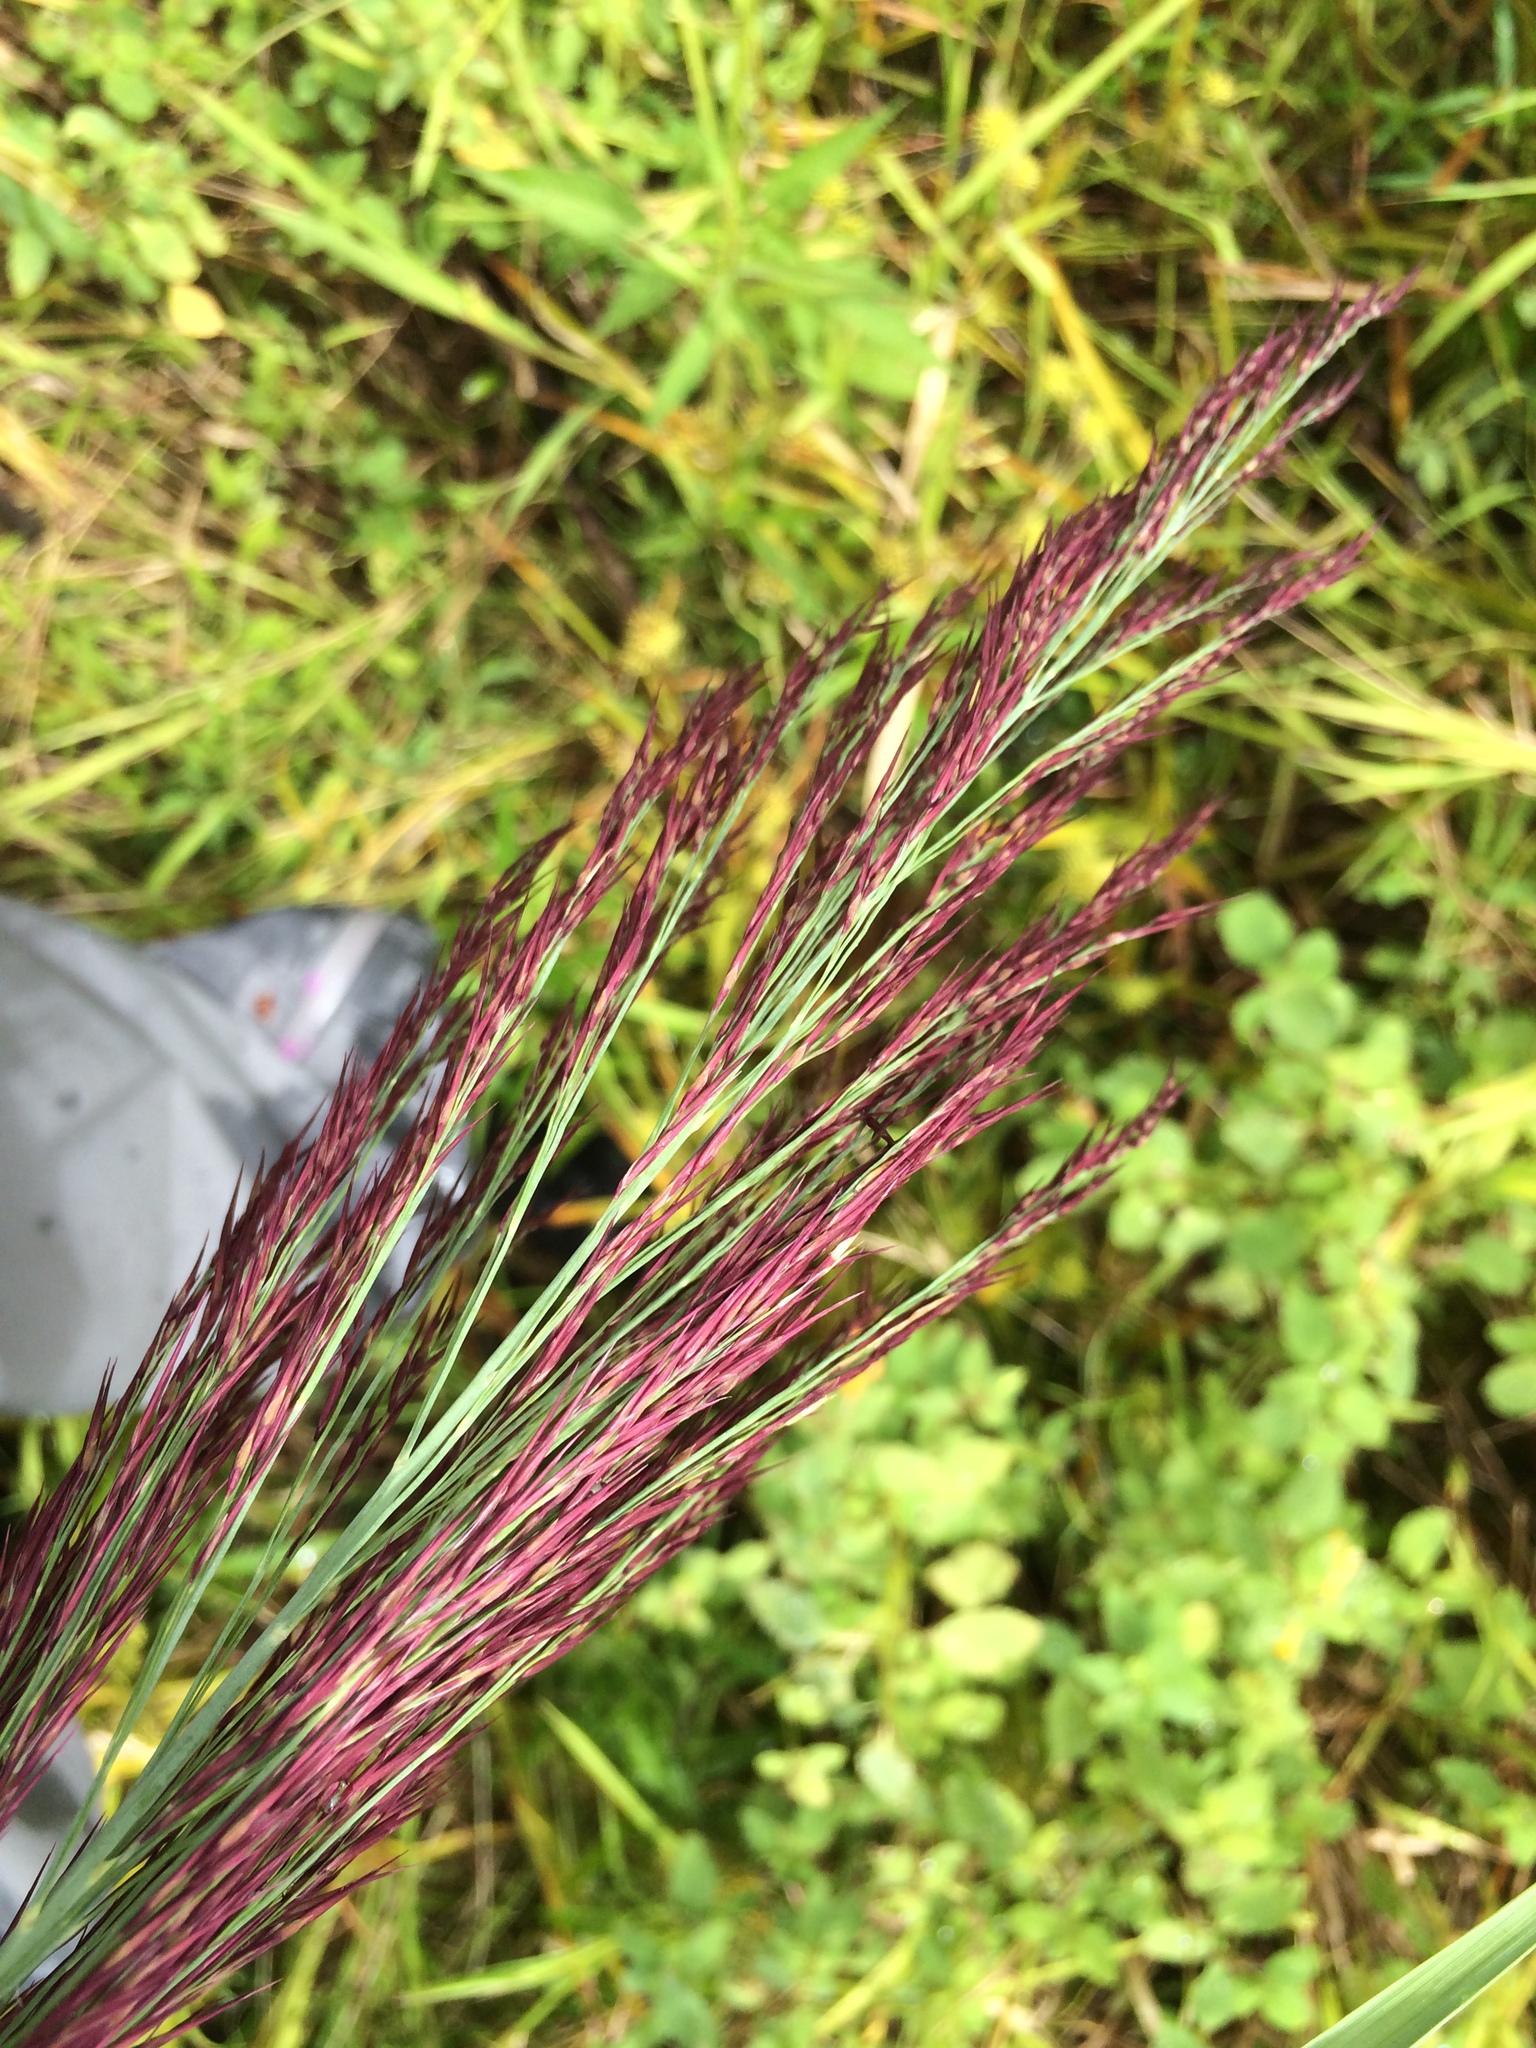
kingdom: Plantae
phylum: Tracheophyta
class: Liliopsida
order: Poales
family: Poaceae
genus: Phragmites
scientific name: Phragmites australis
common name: Common reed
